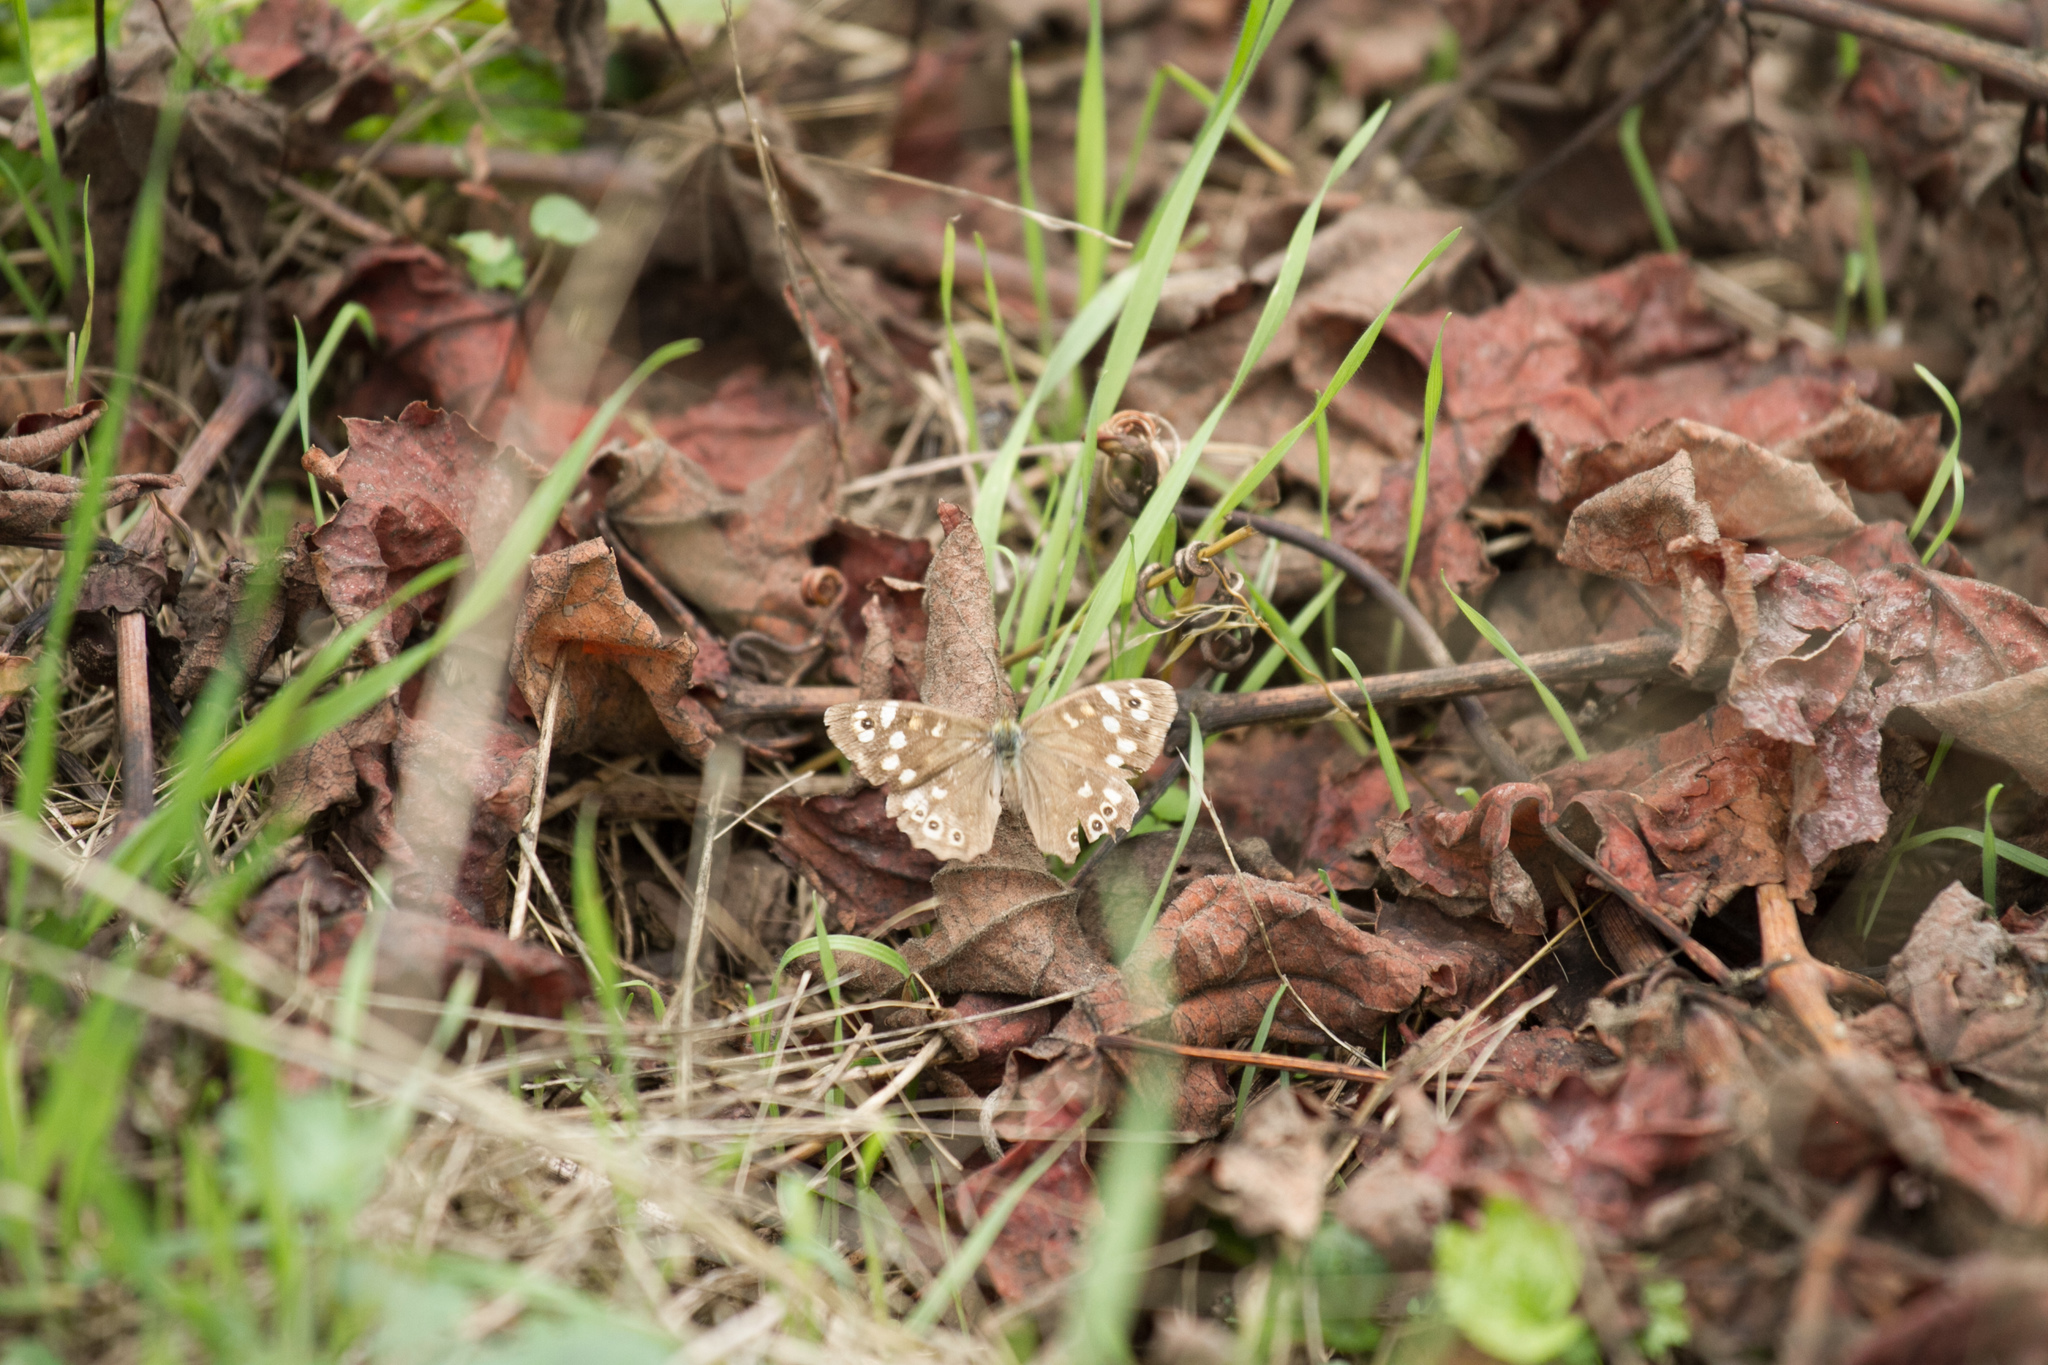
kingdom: Animalia
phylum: Arthropoda
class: Insecta
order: Lepidoptera
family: Nymphalidae
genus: Pararge
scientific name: Pararge aegeria
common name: Speckled wood
